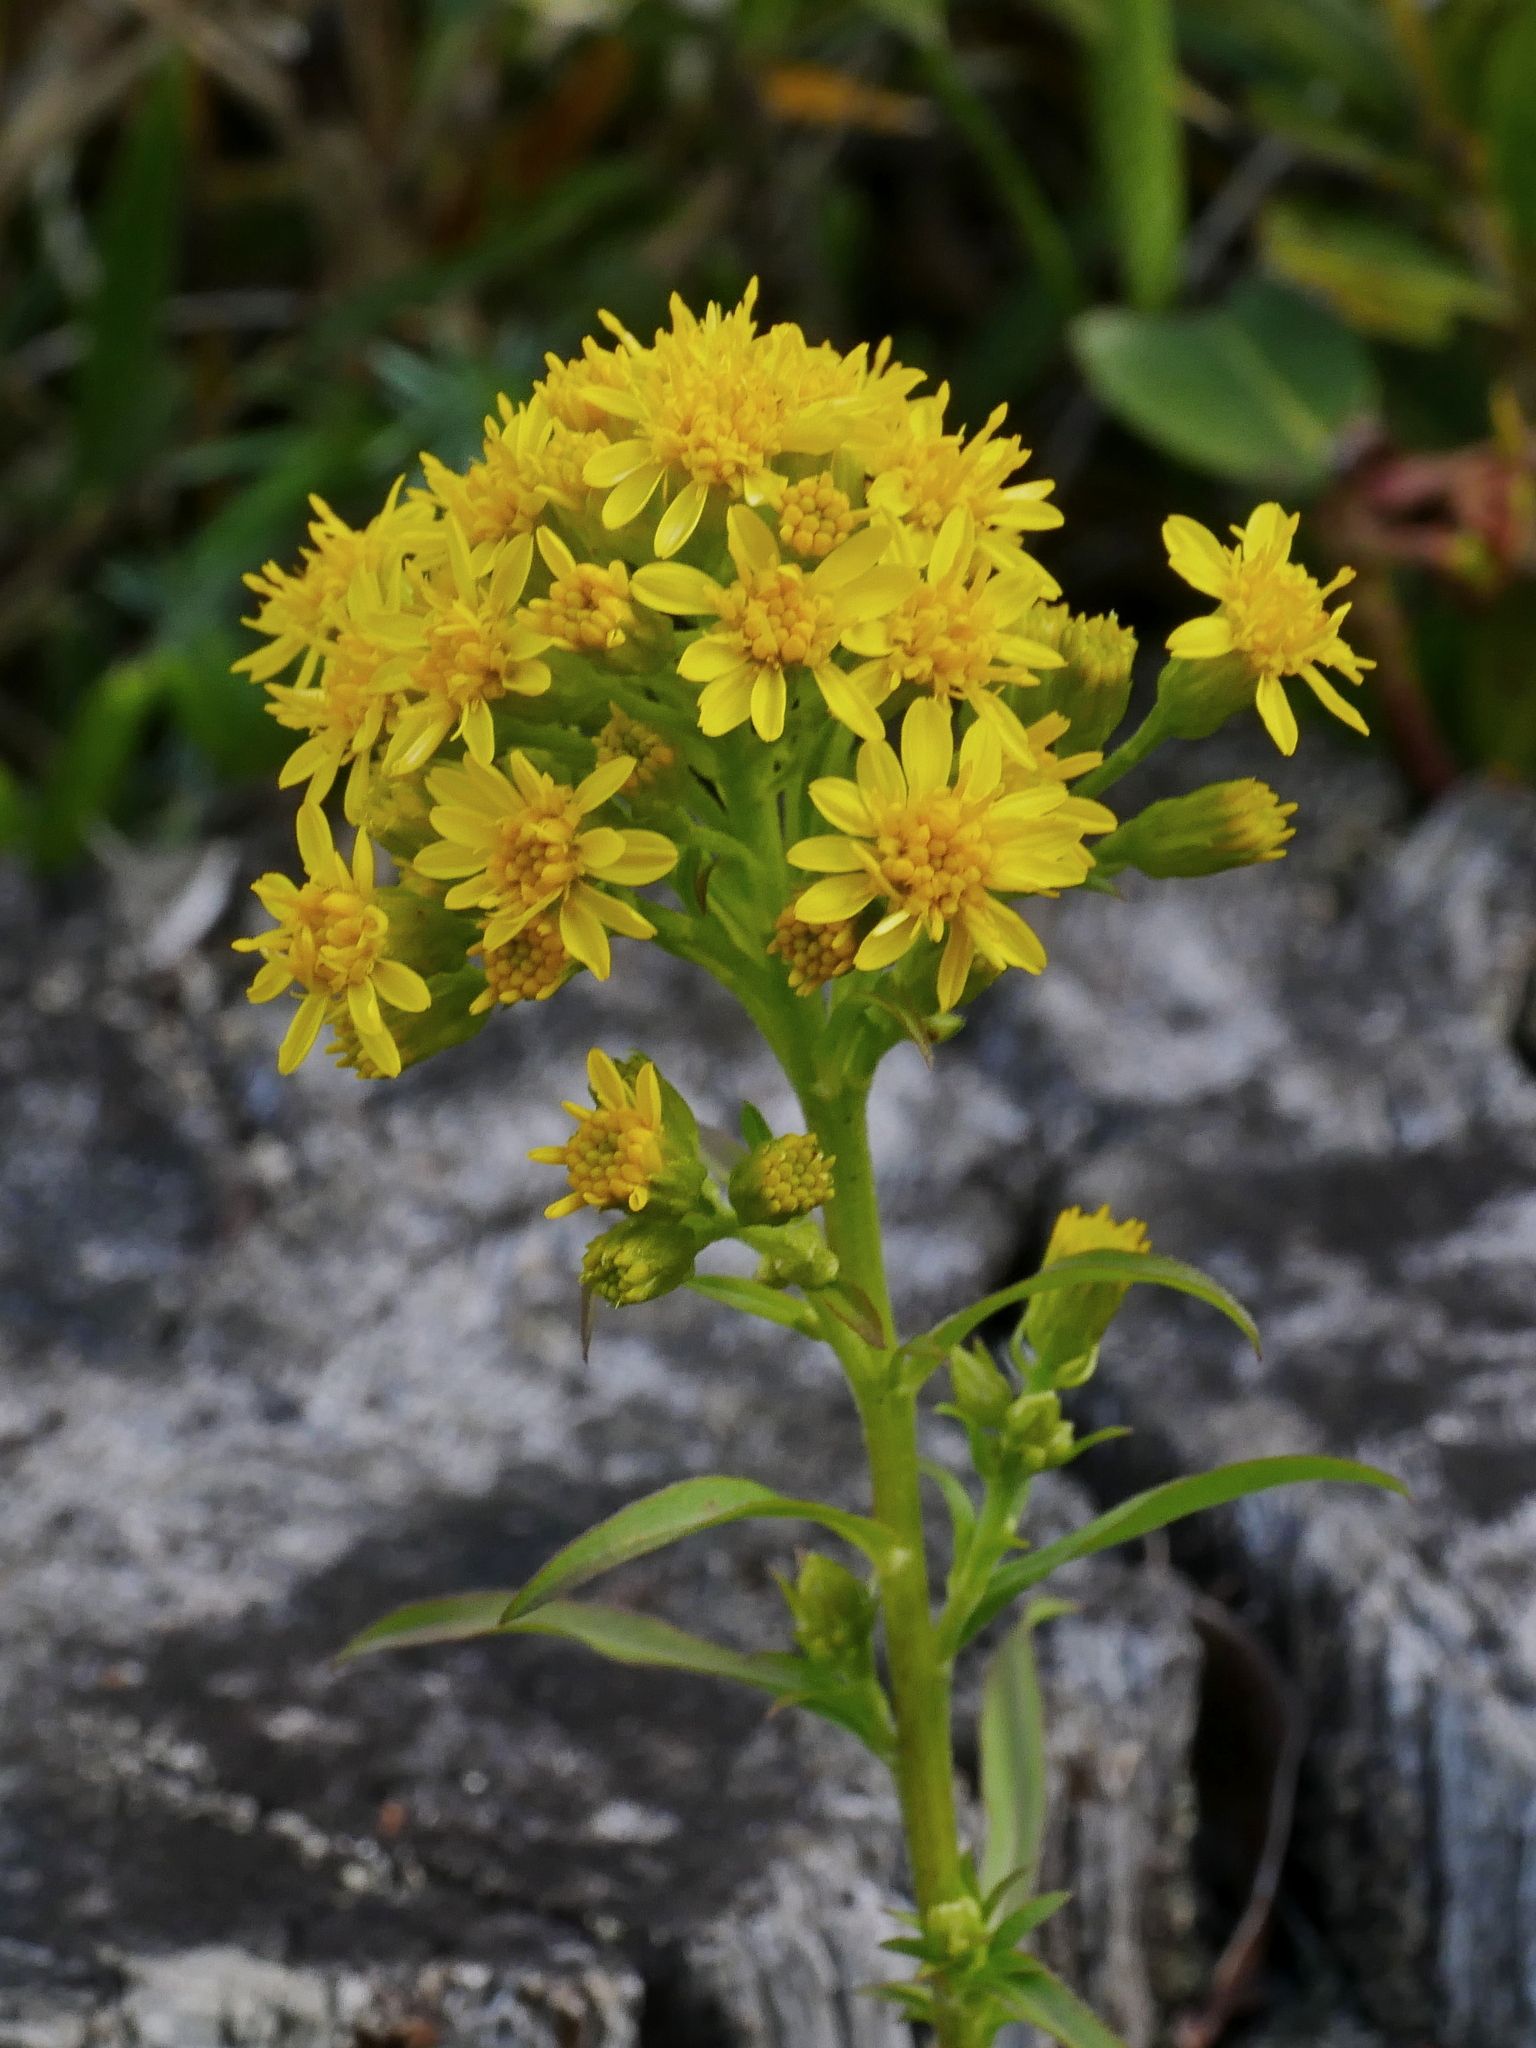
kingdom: Plantae
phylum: Tracheophyta
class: Magnoliopsida
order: Asterales
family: Asteraceae
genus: Solidago
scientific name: Solidago decurrens
